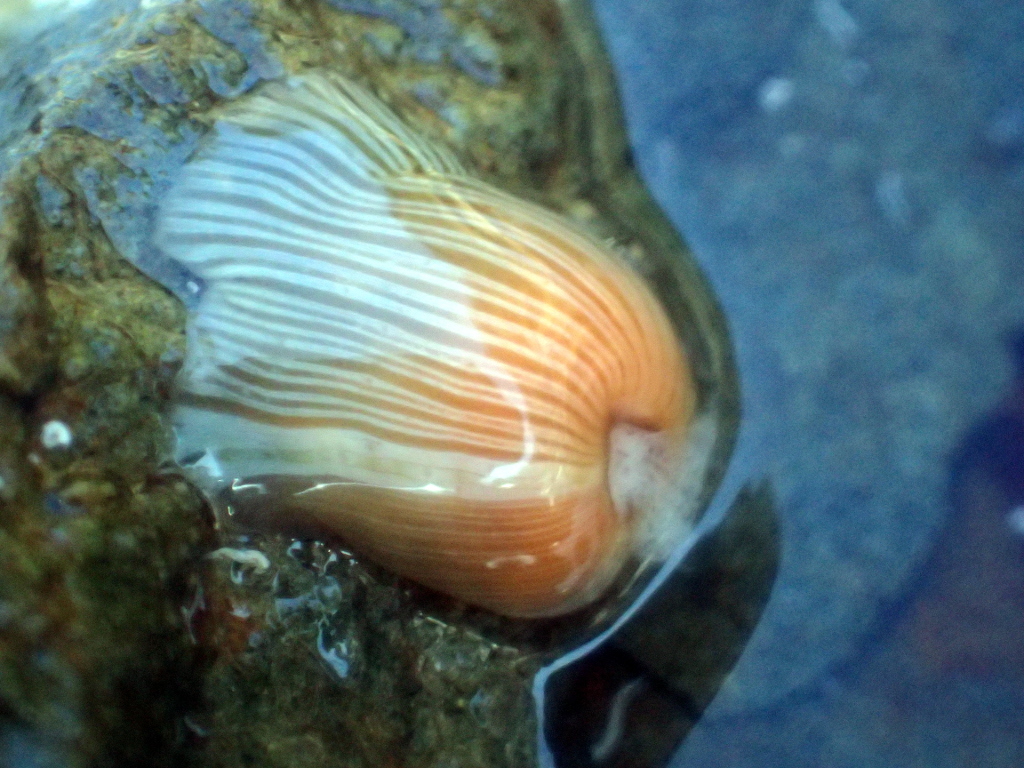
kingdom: Animalia
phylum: Cnidaria
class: Anthozoa
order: Actiniaria
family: Sagartiidae
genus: Anthothoe
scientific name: Anthothoe albocincta
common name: Orange striped anemone
